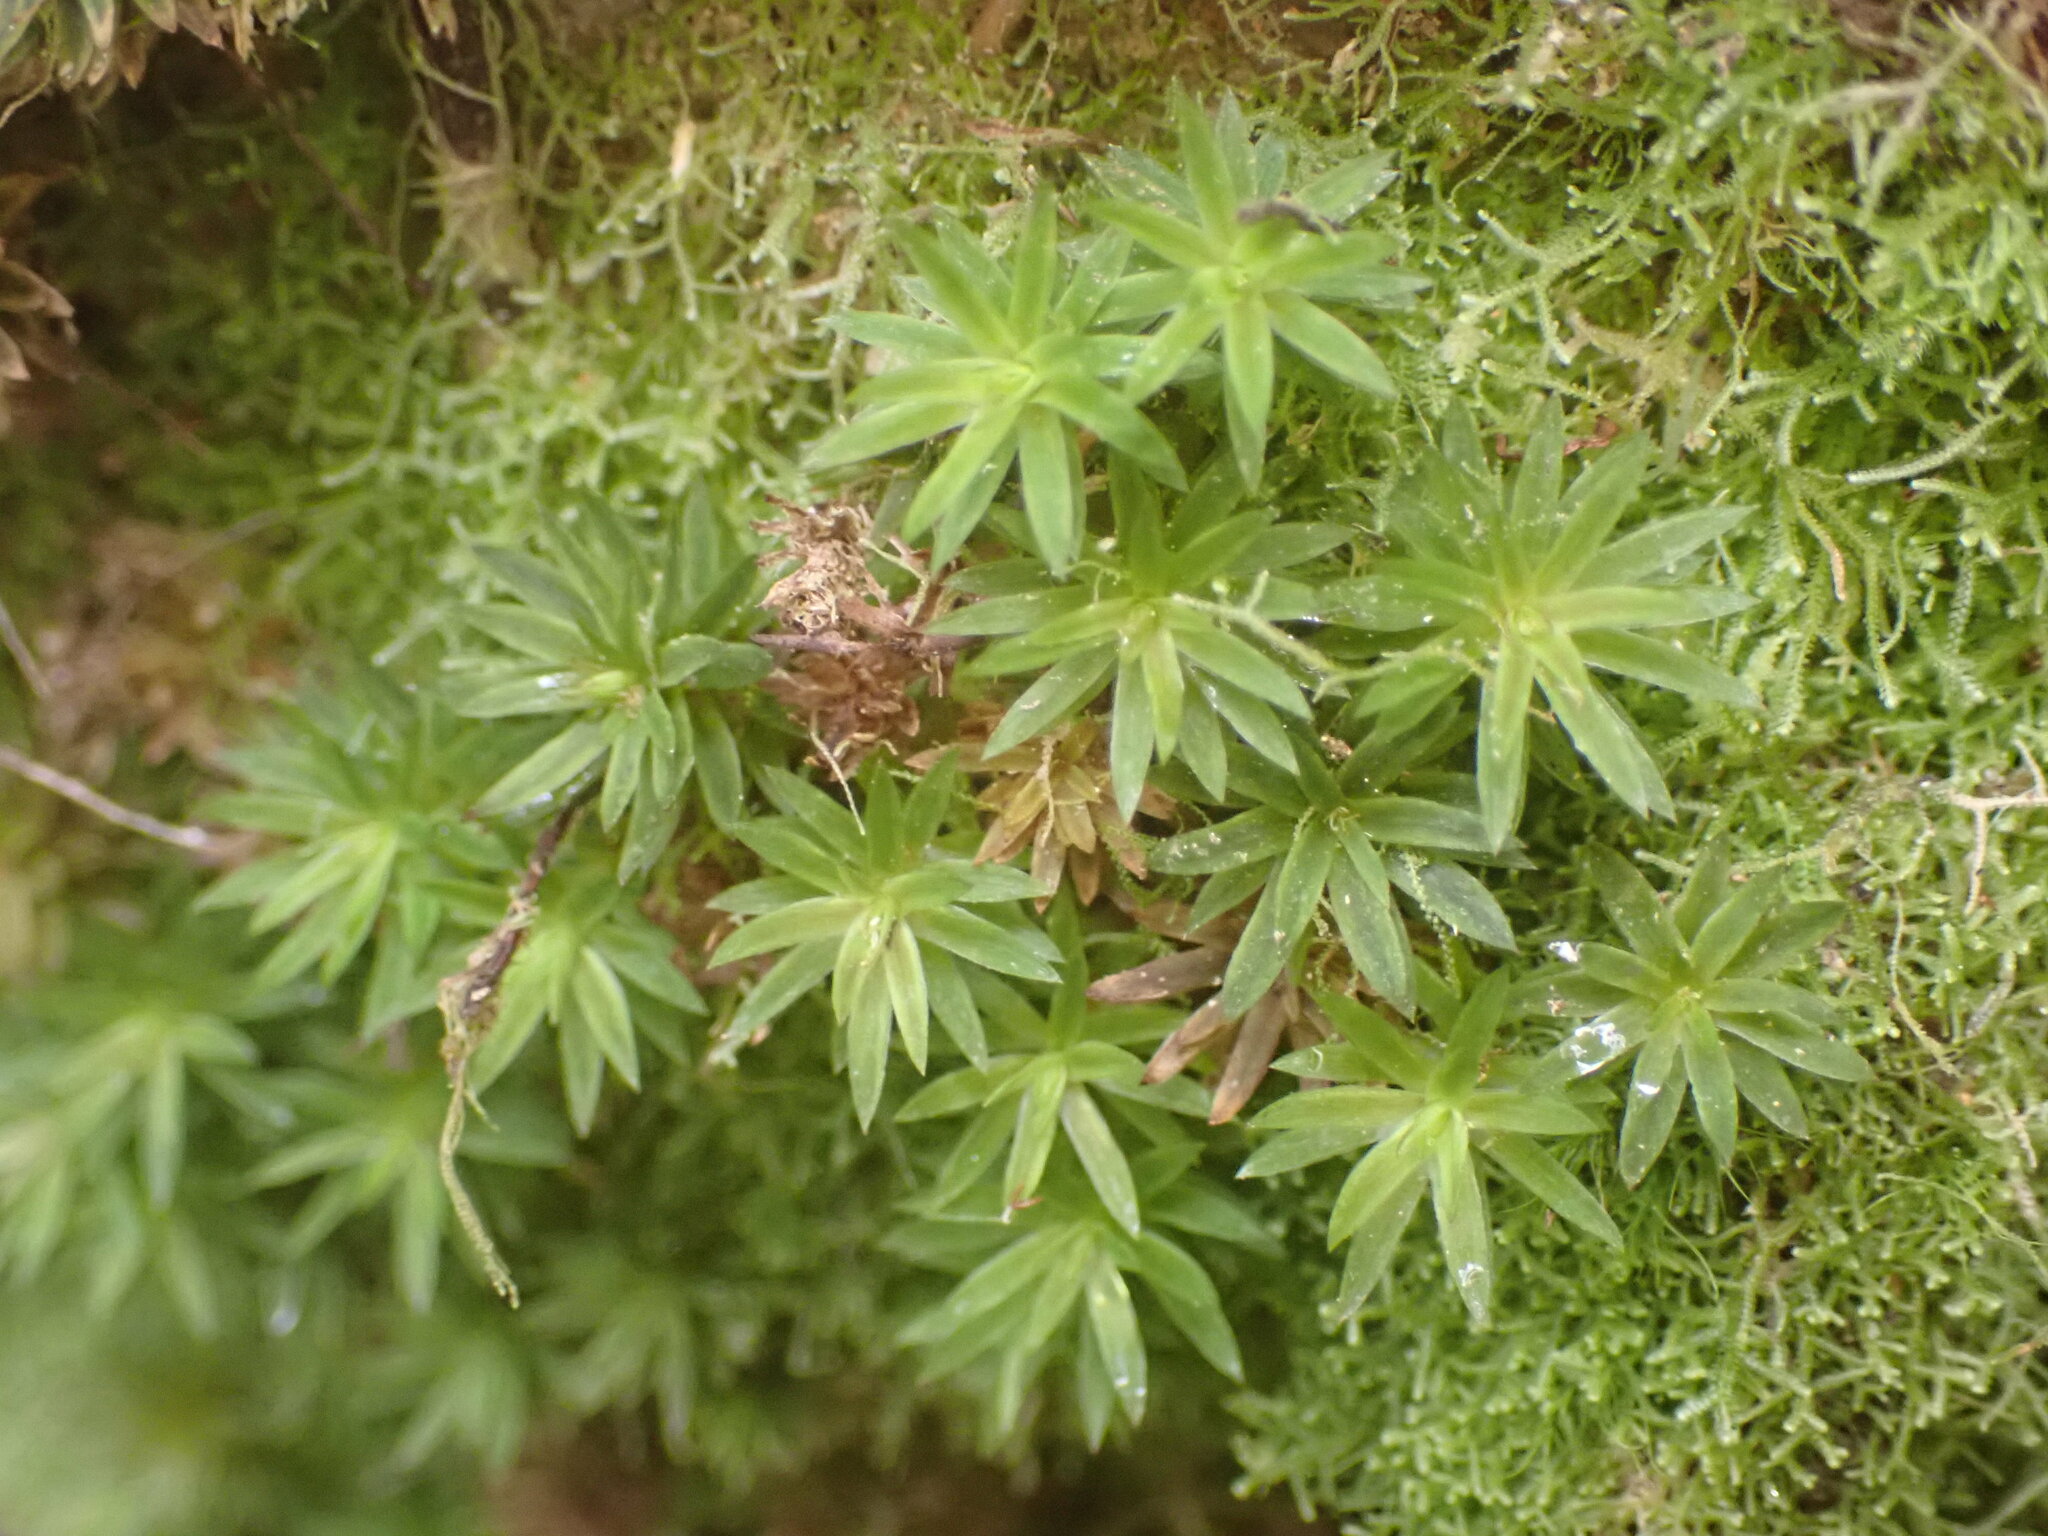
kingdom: Plantae
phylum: Bryophyta
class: Polytrichopsida
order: Polytrichales
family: Polytrichaceae
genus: Pogonatum
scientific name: Pogonatum subulatum
